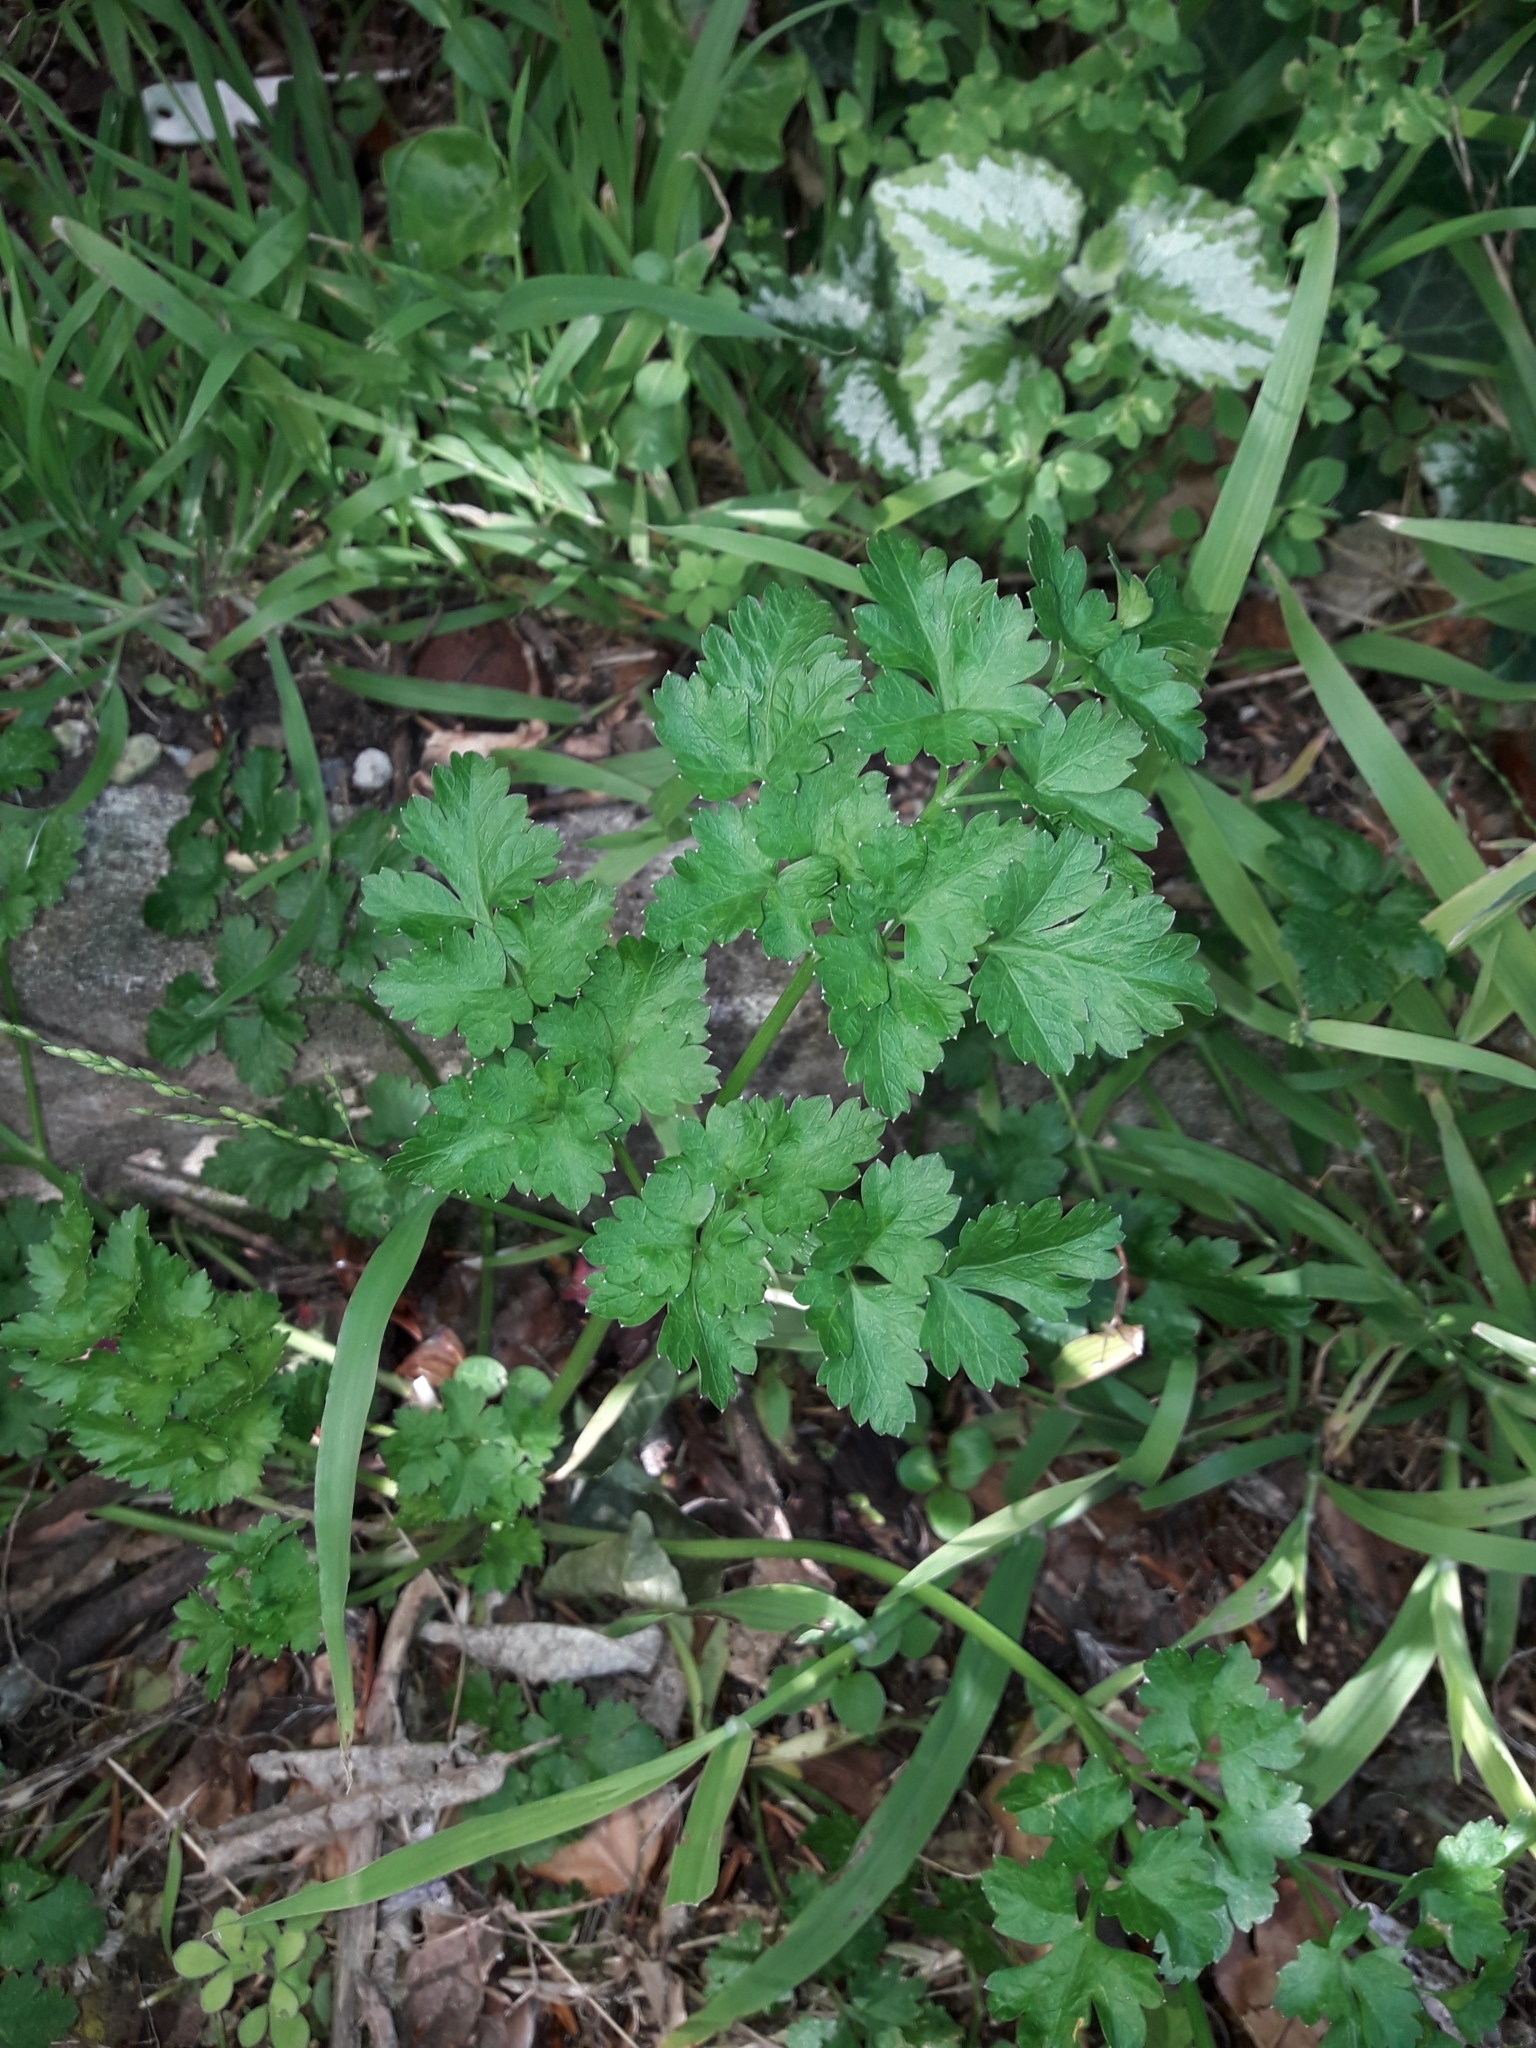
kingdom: Plantae
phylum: Tracheophyta
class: Magnoliopsida
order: Apiales
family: Apiaceae
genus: Petroselinum
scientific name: Petroselinum crispum
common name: Parsley
